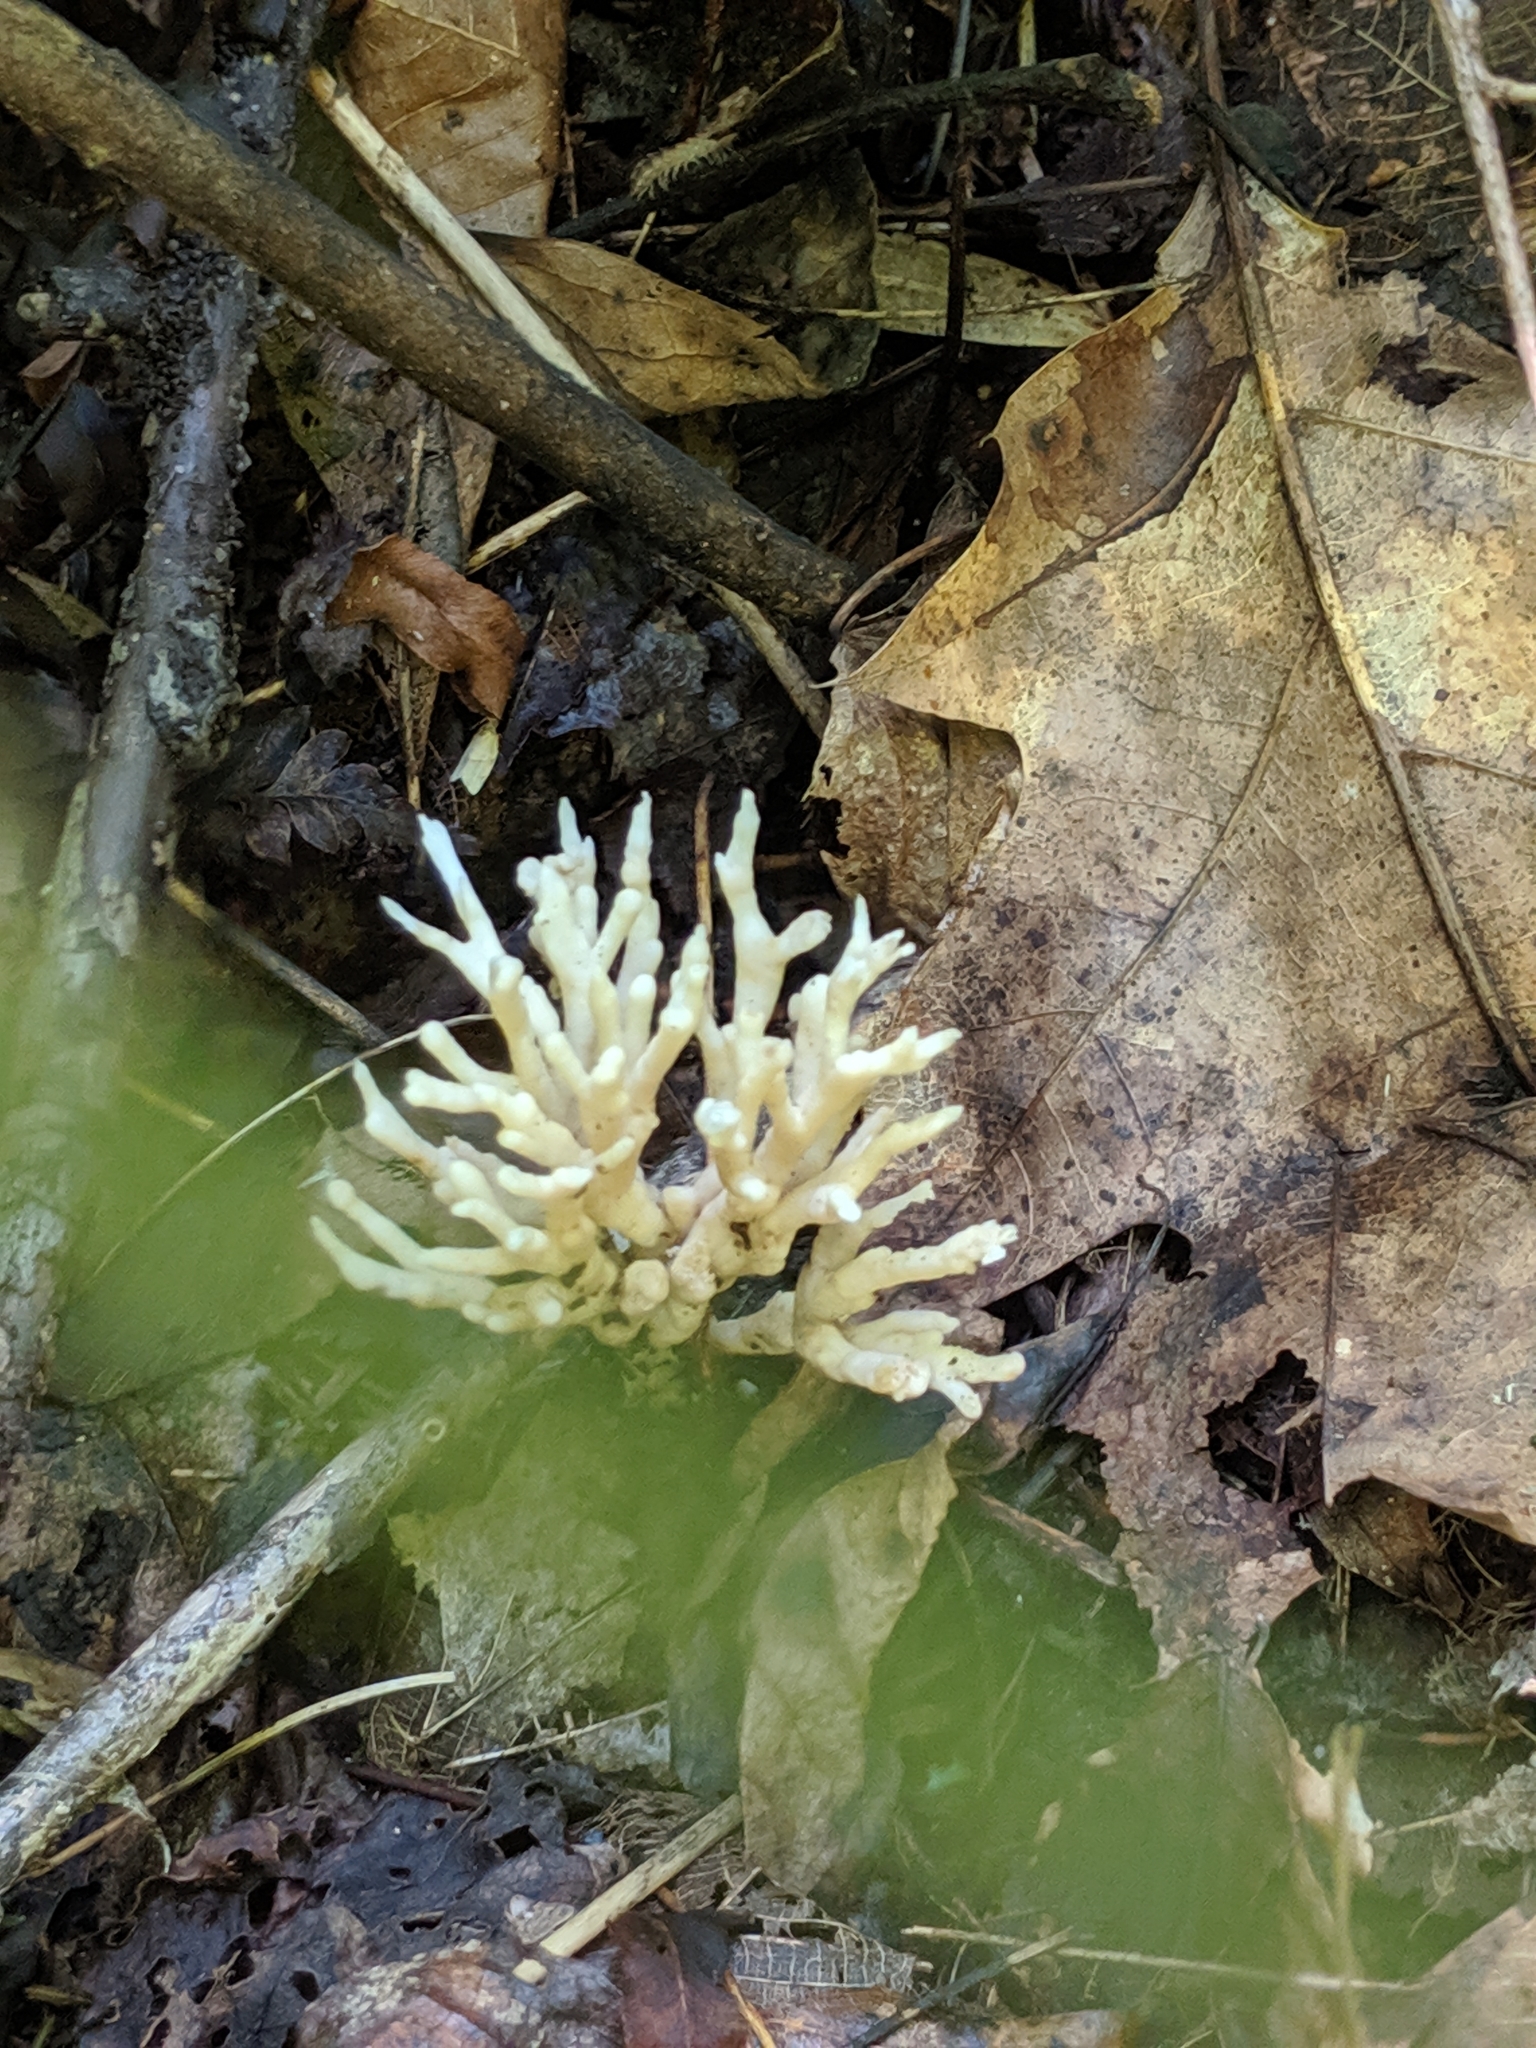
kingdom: Fungi
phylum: Basidiomycota
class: Agaricomycetes
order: Sebacinales
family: Sebacinaceae
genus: Sebacina
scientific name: Sebacina schweinitzii
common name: Jellied false coral fungus
